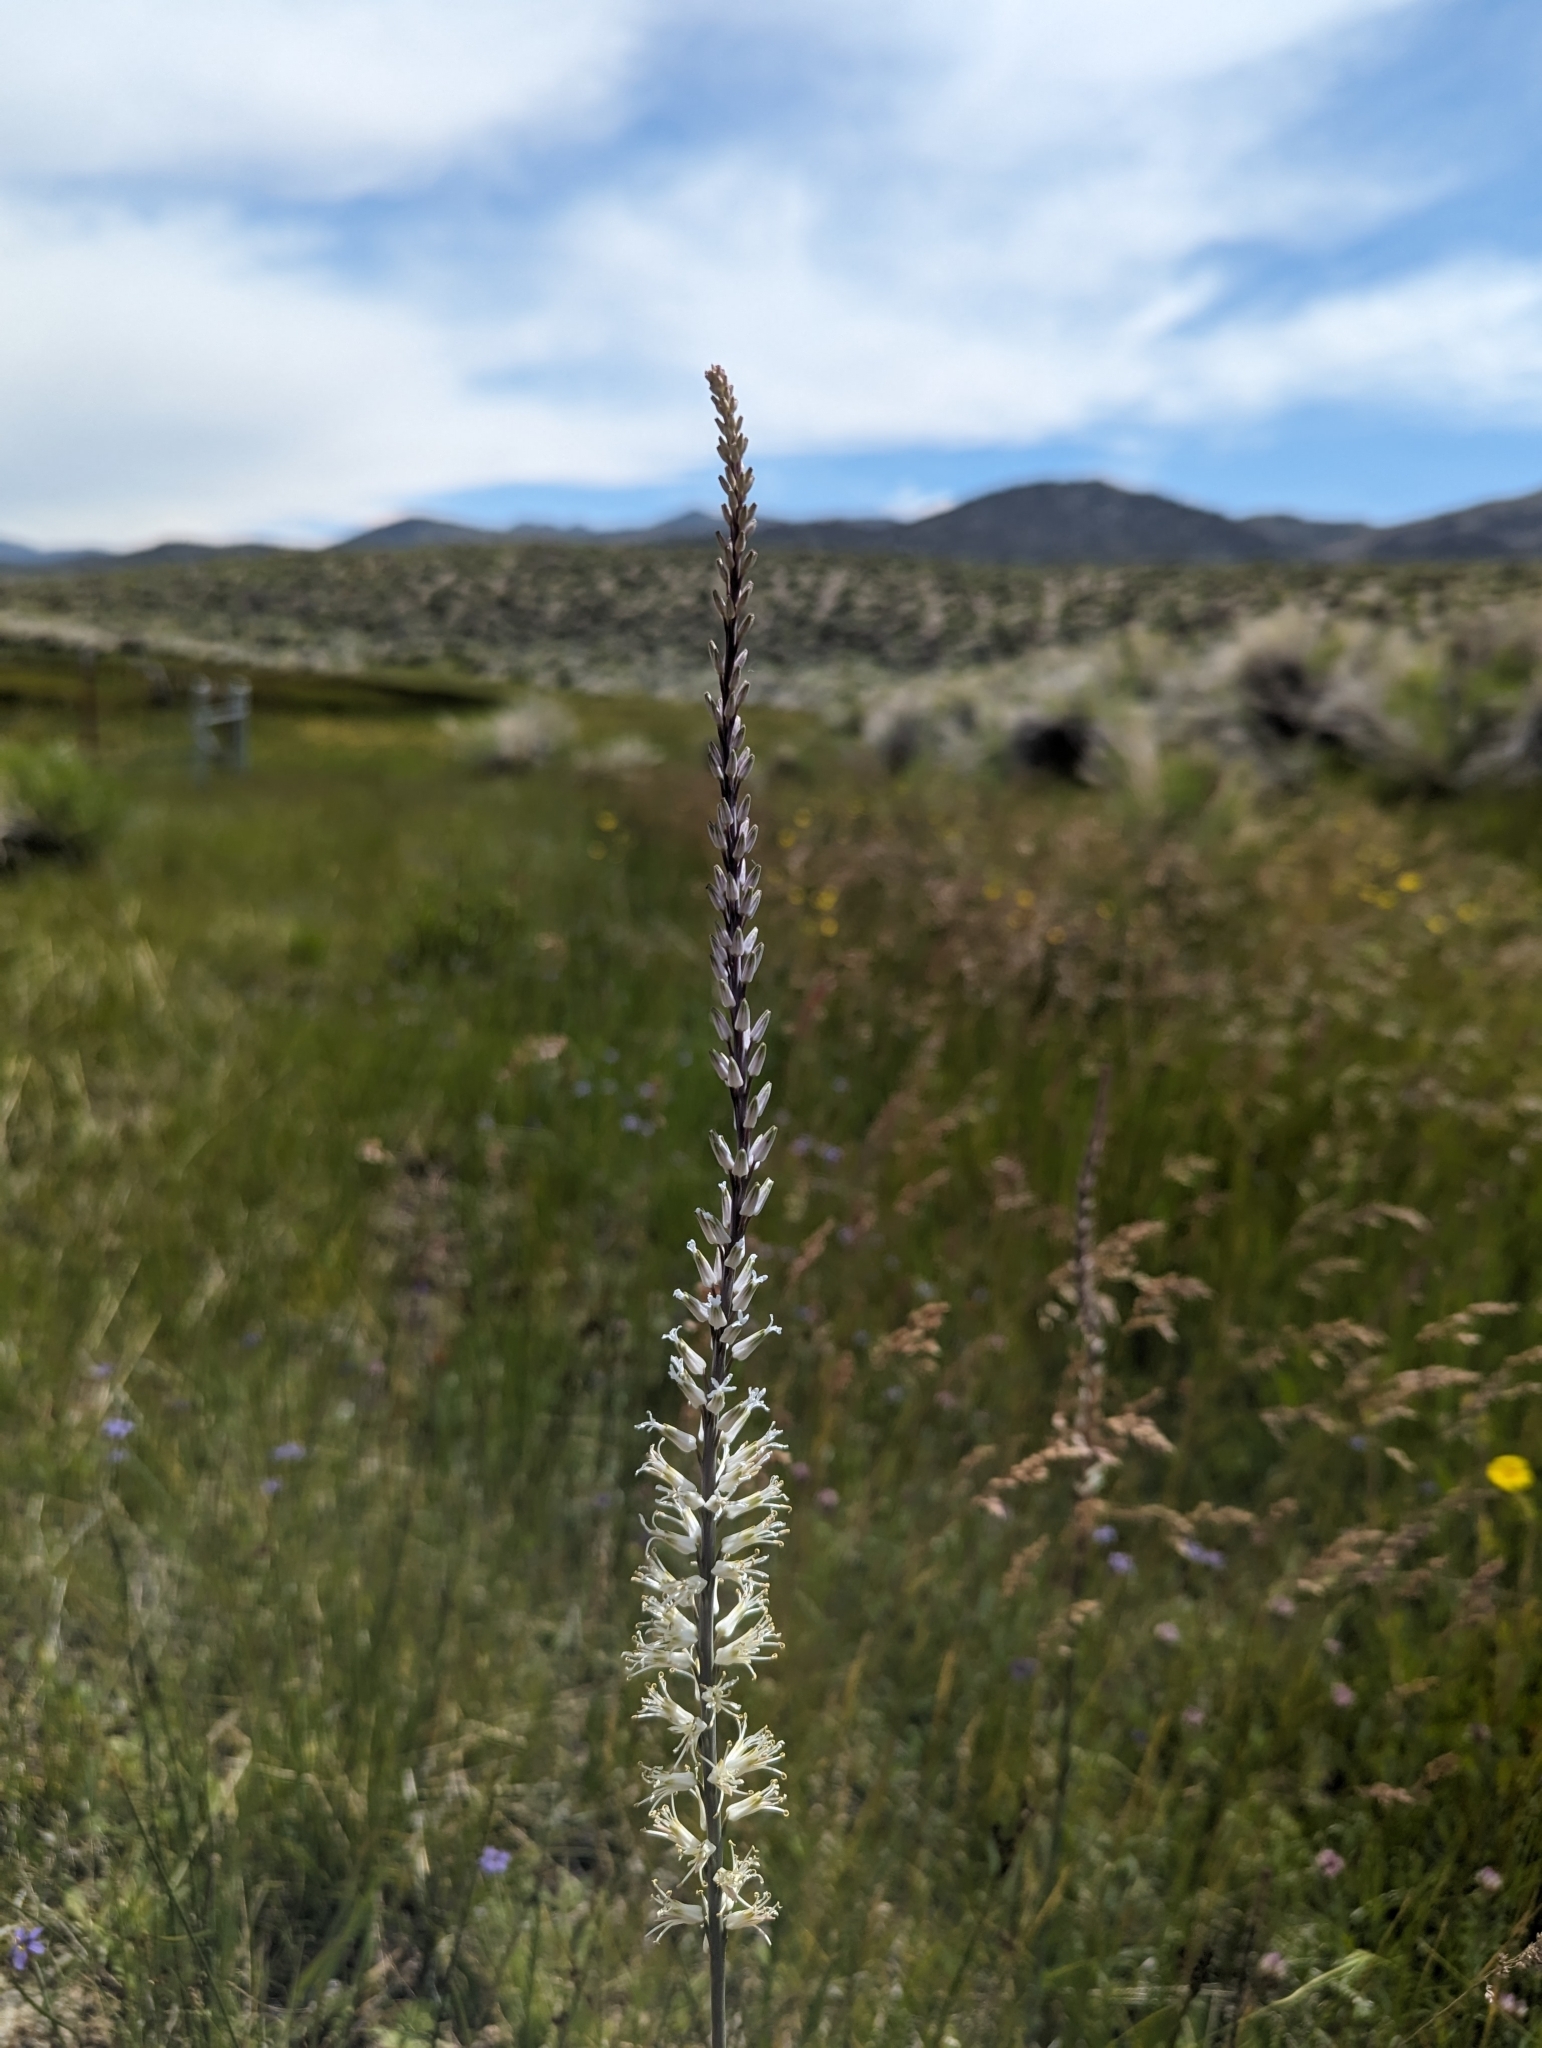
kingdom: Plantae
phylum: Tracheophyta
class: Magnoliopsida
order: Brassicales
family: Brassicaceae
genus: Thelypodium
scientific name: Thelypodium crispum
